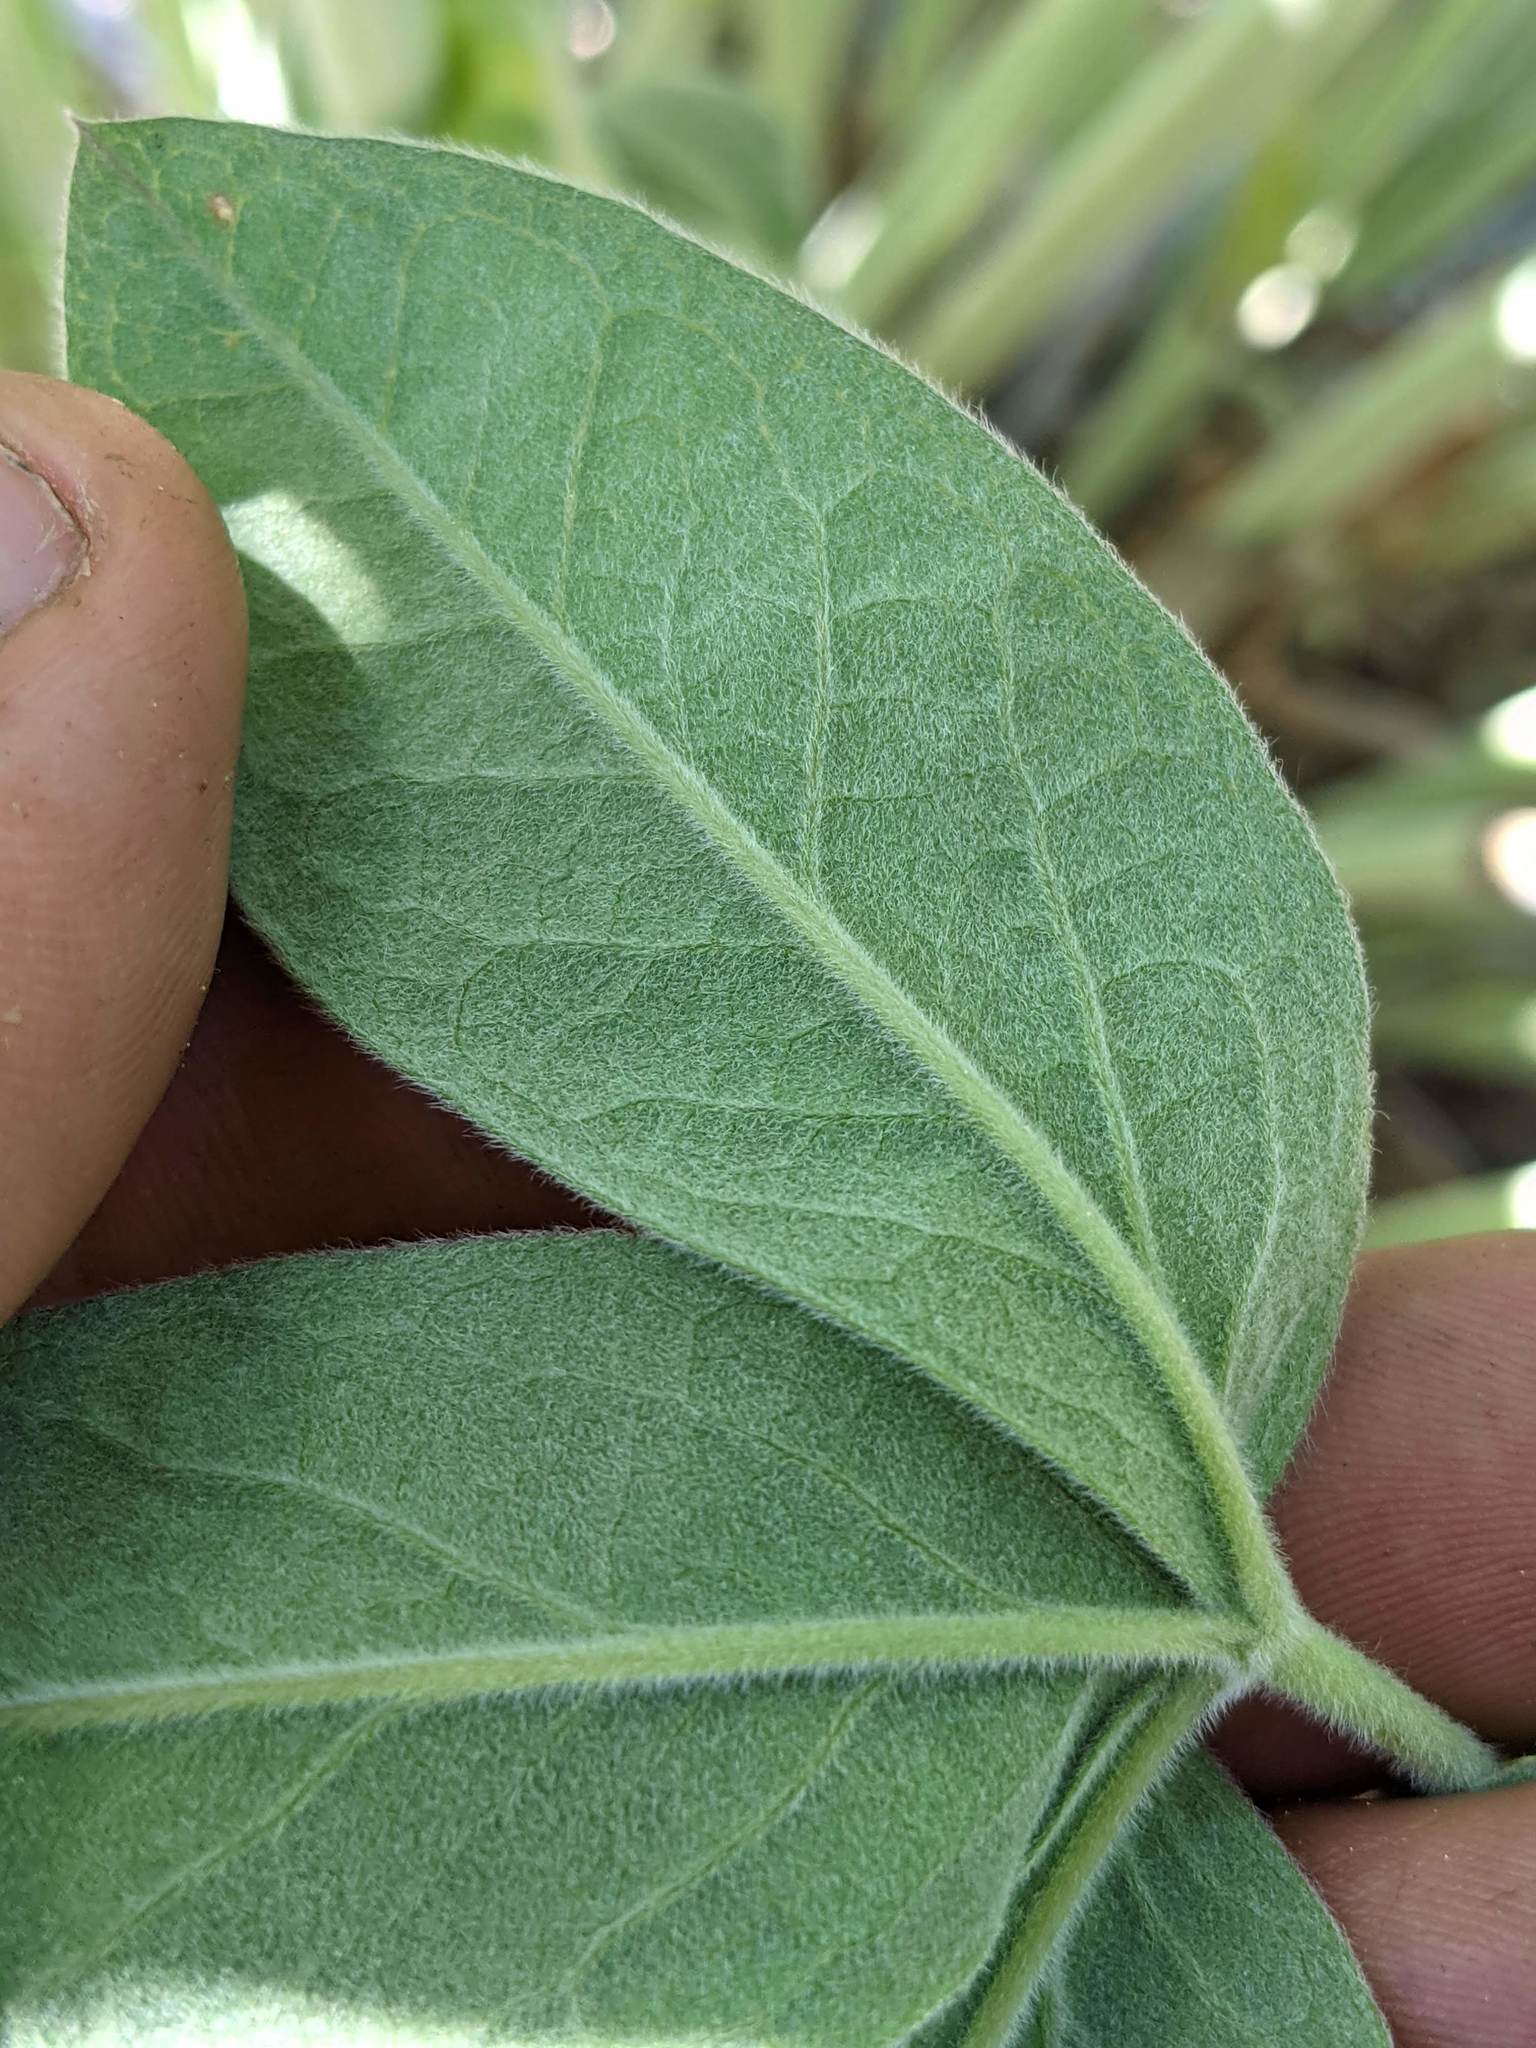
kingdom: Plantae
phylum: Tracheophyta
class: Magnoliopsida
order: Fabales
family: Fabaceae
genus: Thermopsis
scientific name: Thermopsis robusta
